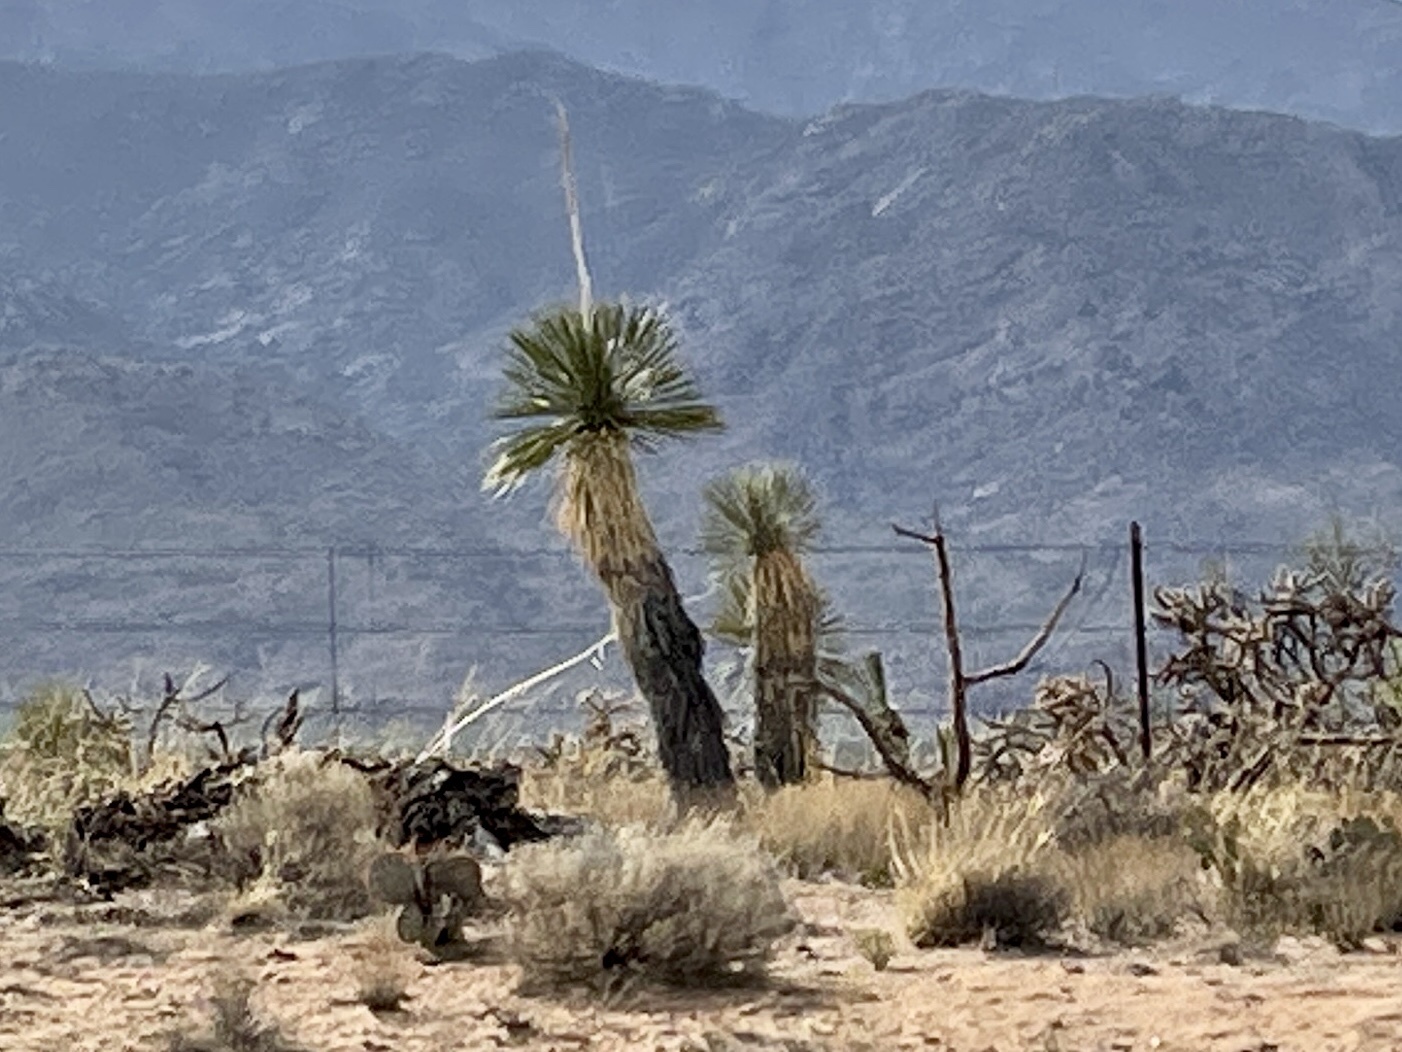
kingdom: Plantae
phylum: Tracheophyta
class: Liliopsida
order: Asparagales
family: Asparagaceae
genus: Yucca
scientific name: Yucca elata
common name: Palmella
